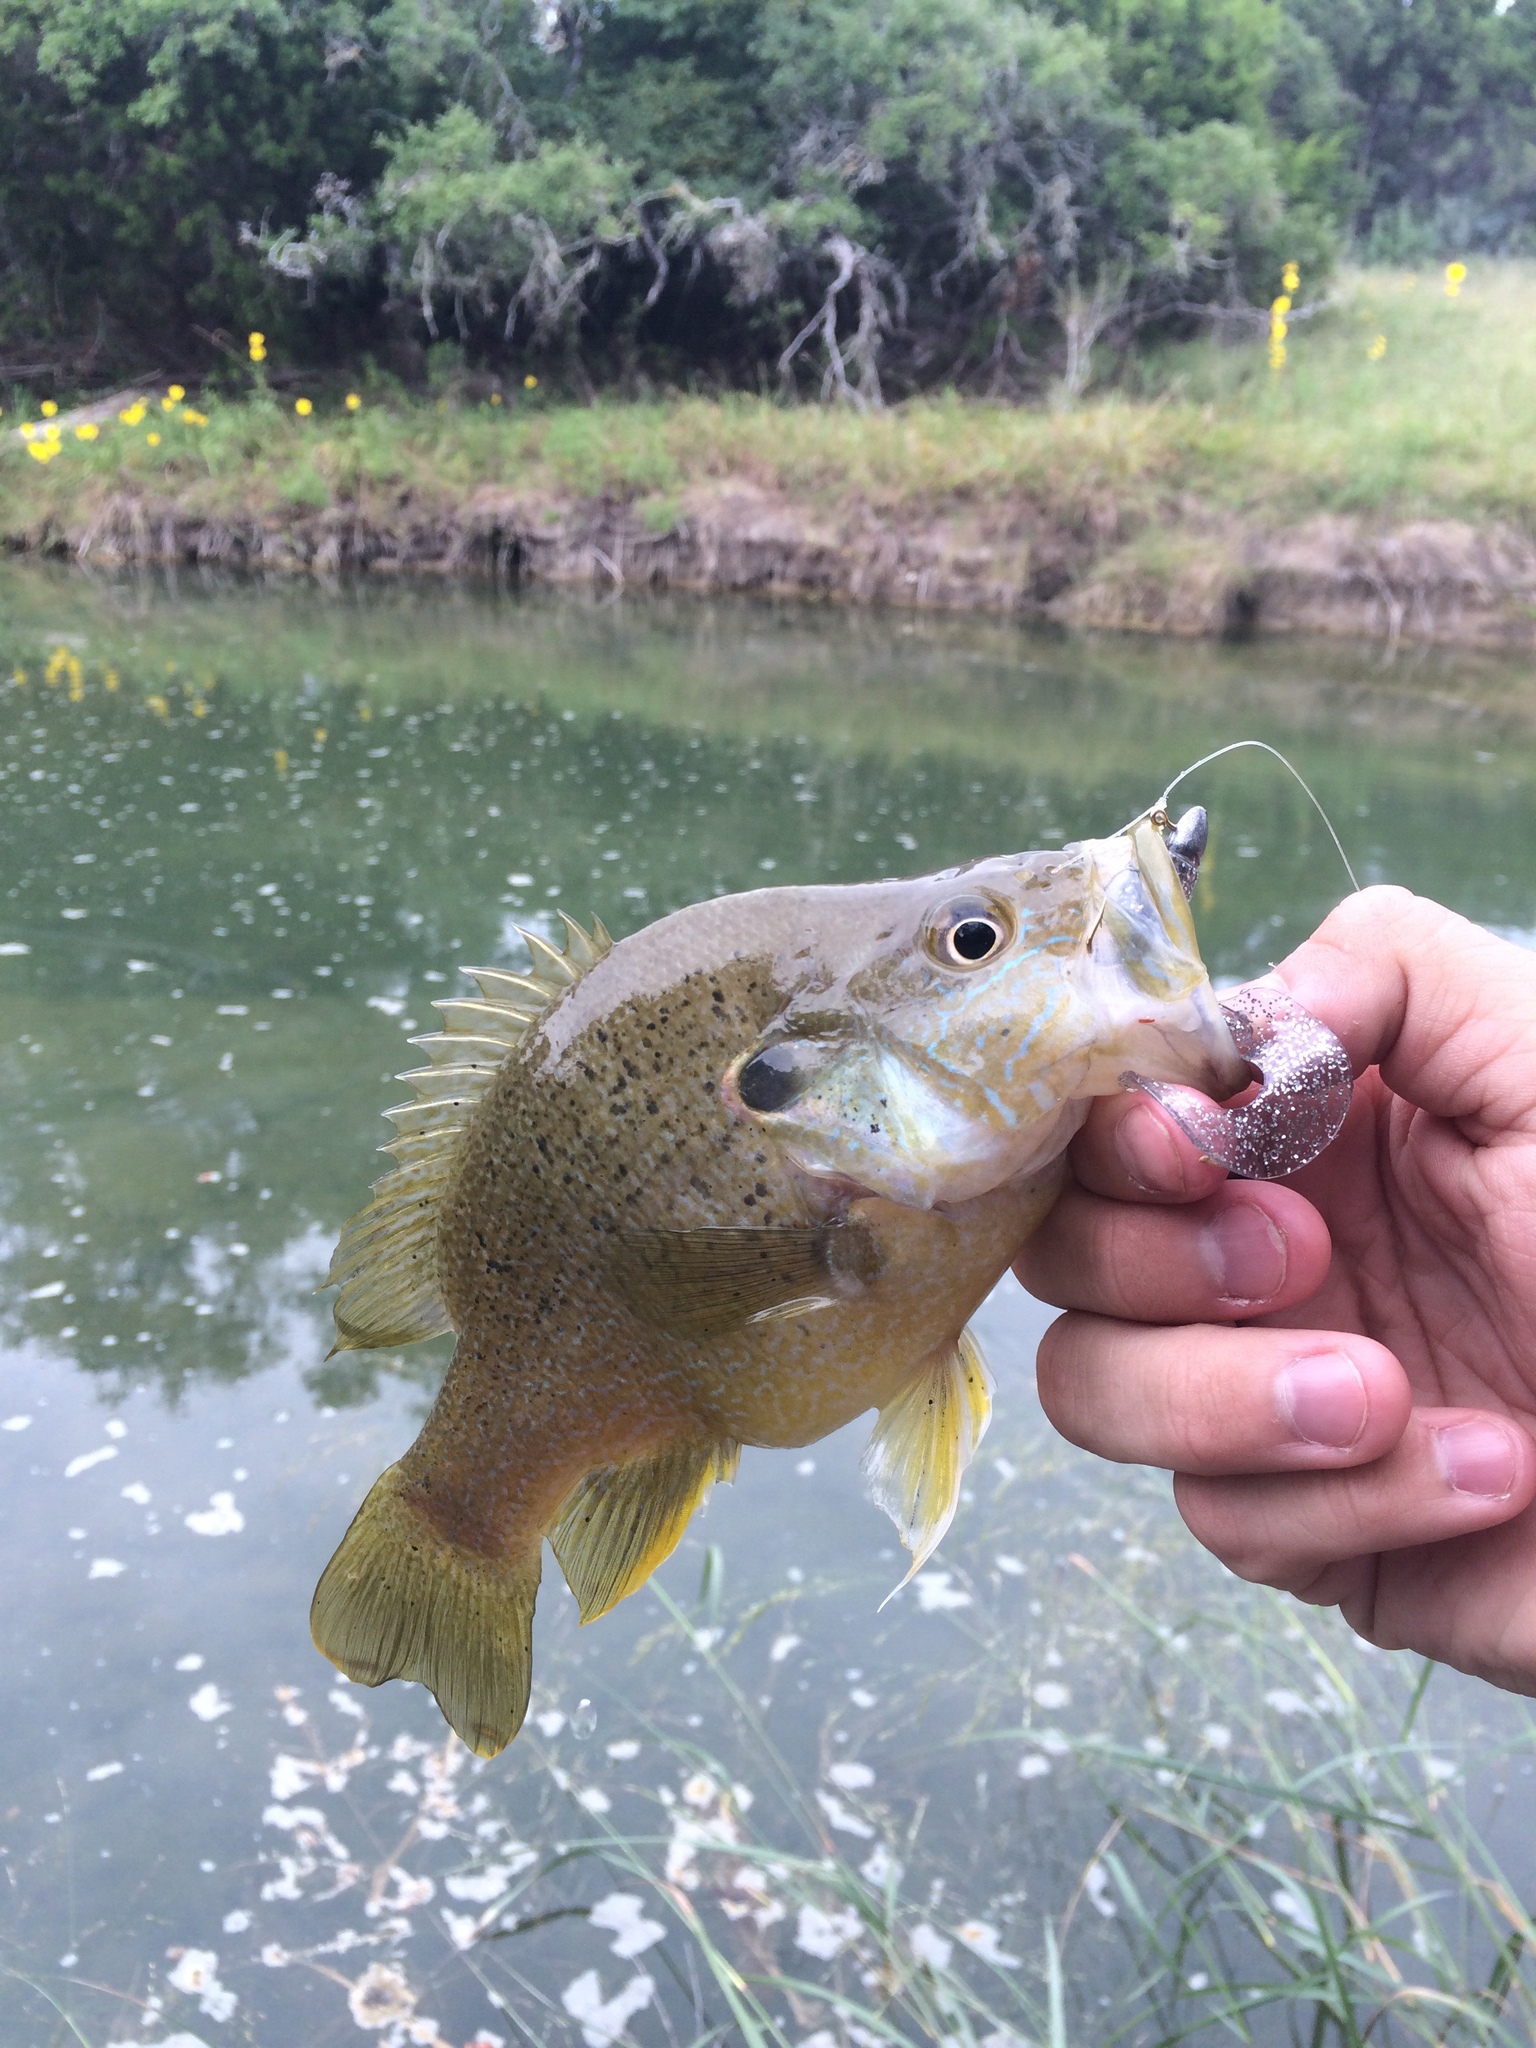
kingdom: Animalia
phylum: Chordata
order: Perciformes
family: Centrarchidae
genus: Lepomis
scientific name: Lepomis cyanellus
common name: Green sunfish
